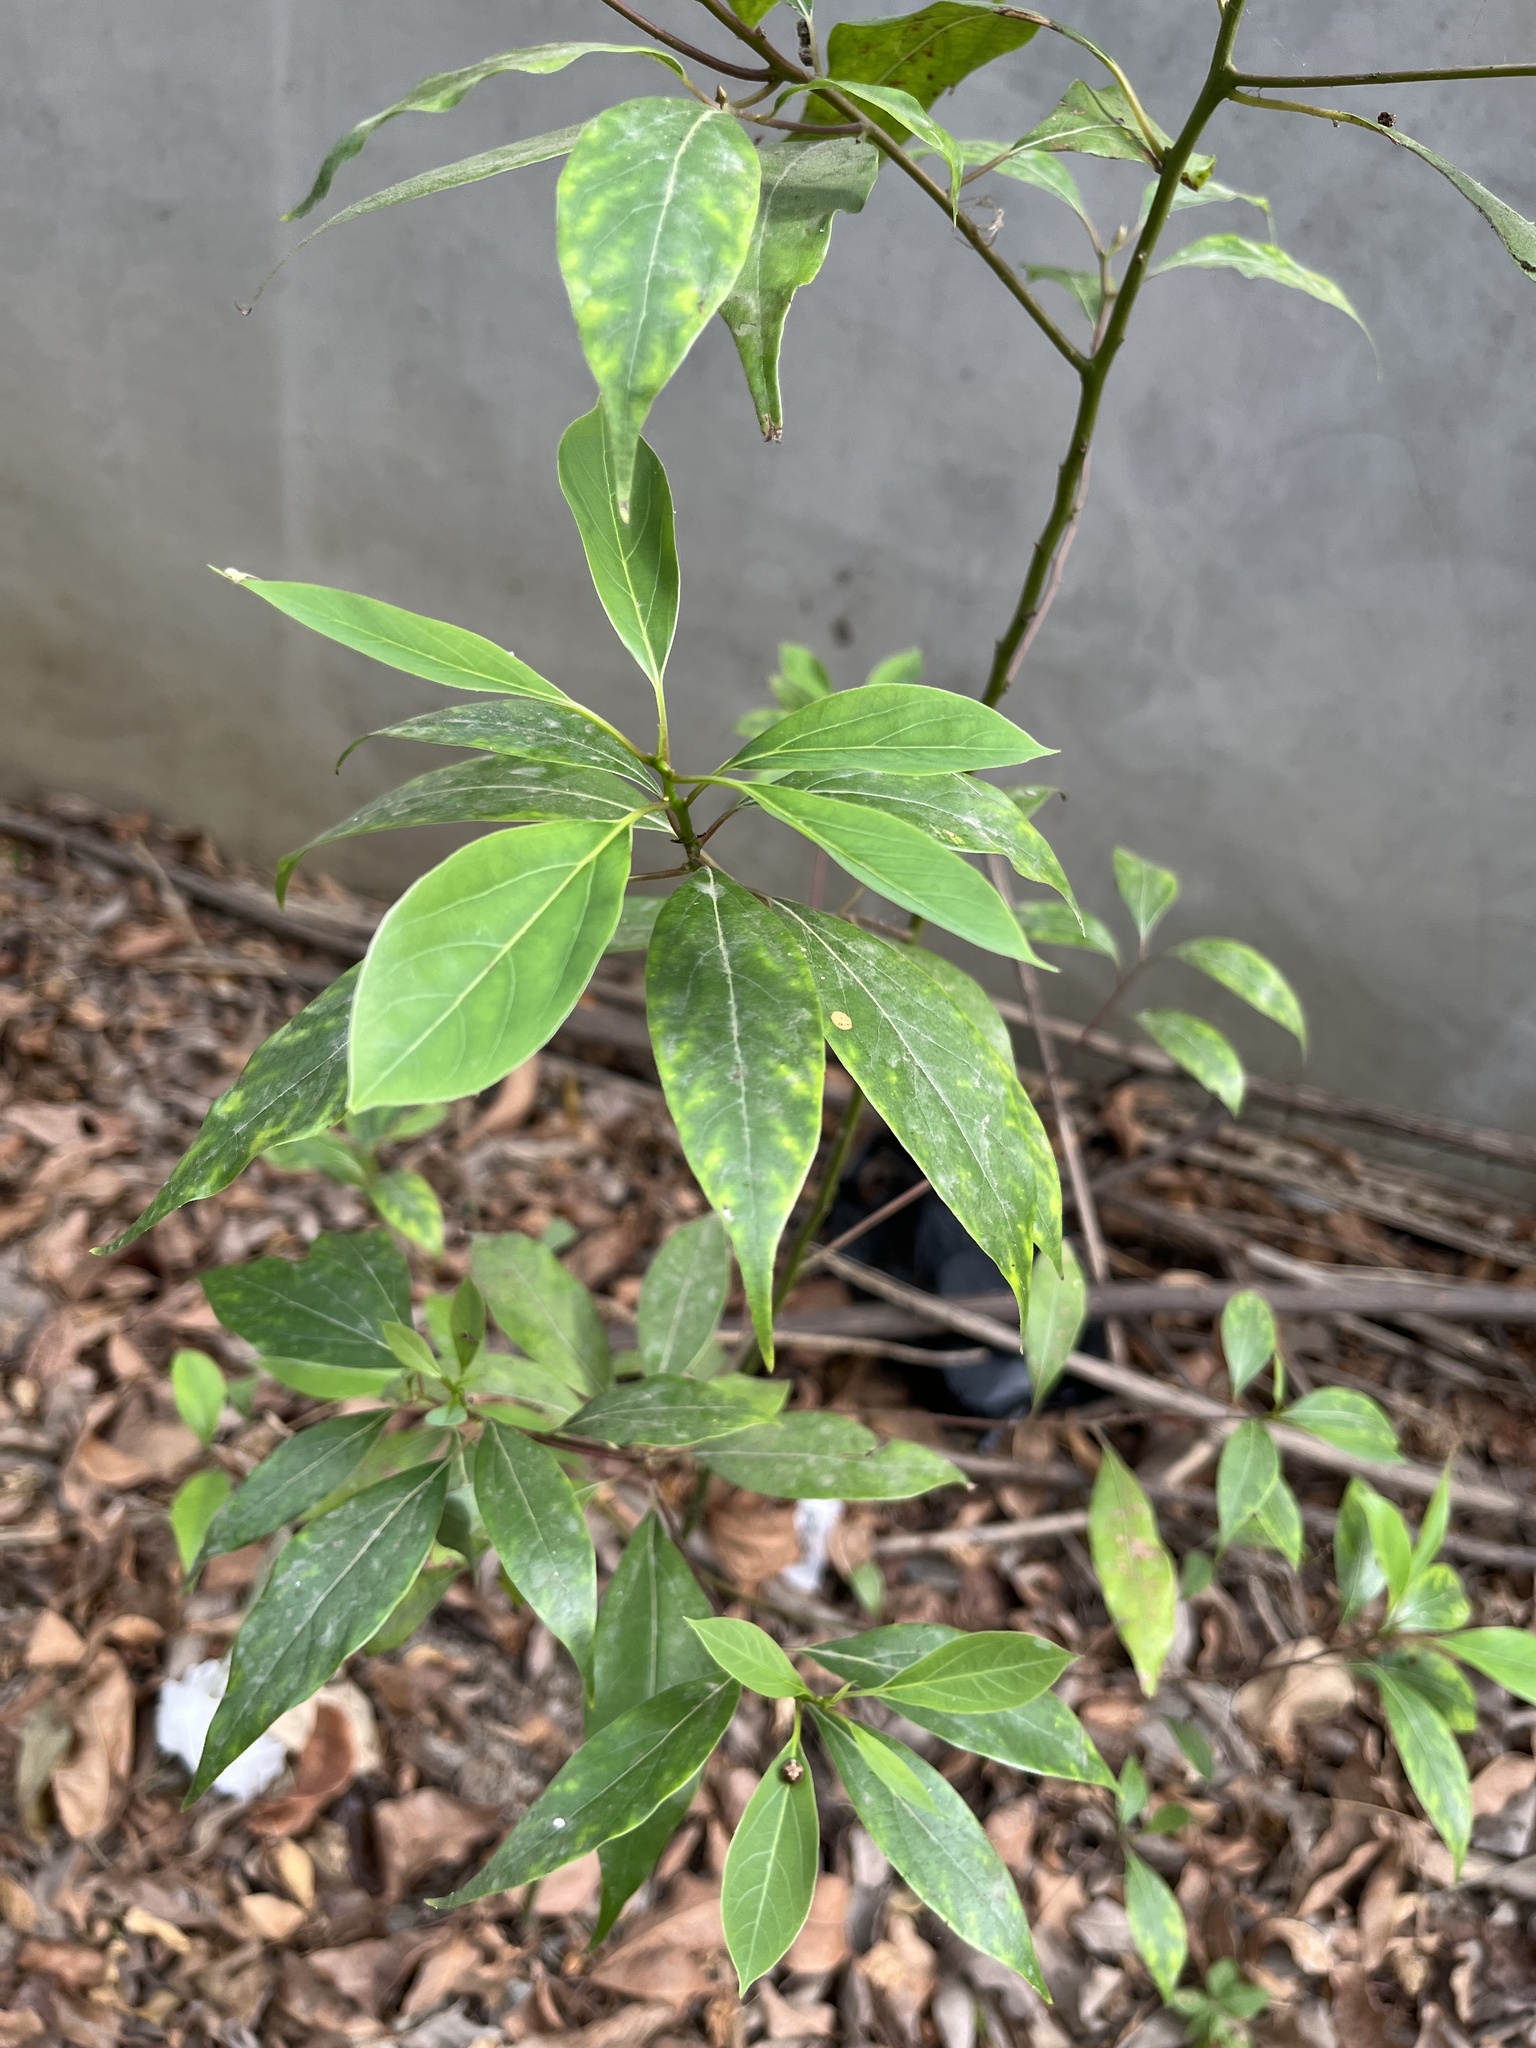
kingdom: Plantae
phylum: Tracheophyta
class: Magnoliopsida
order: Laurales
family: Lauraceae
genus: Cinnamomum
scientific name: Cinnamomum camphora
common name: Camphortree
